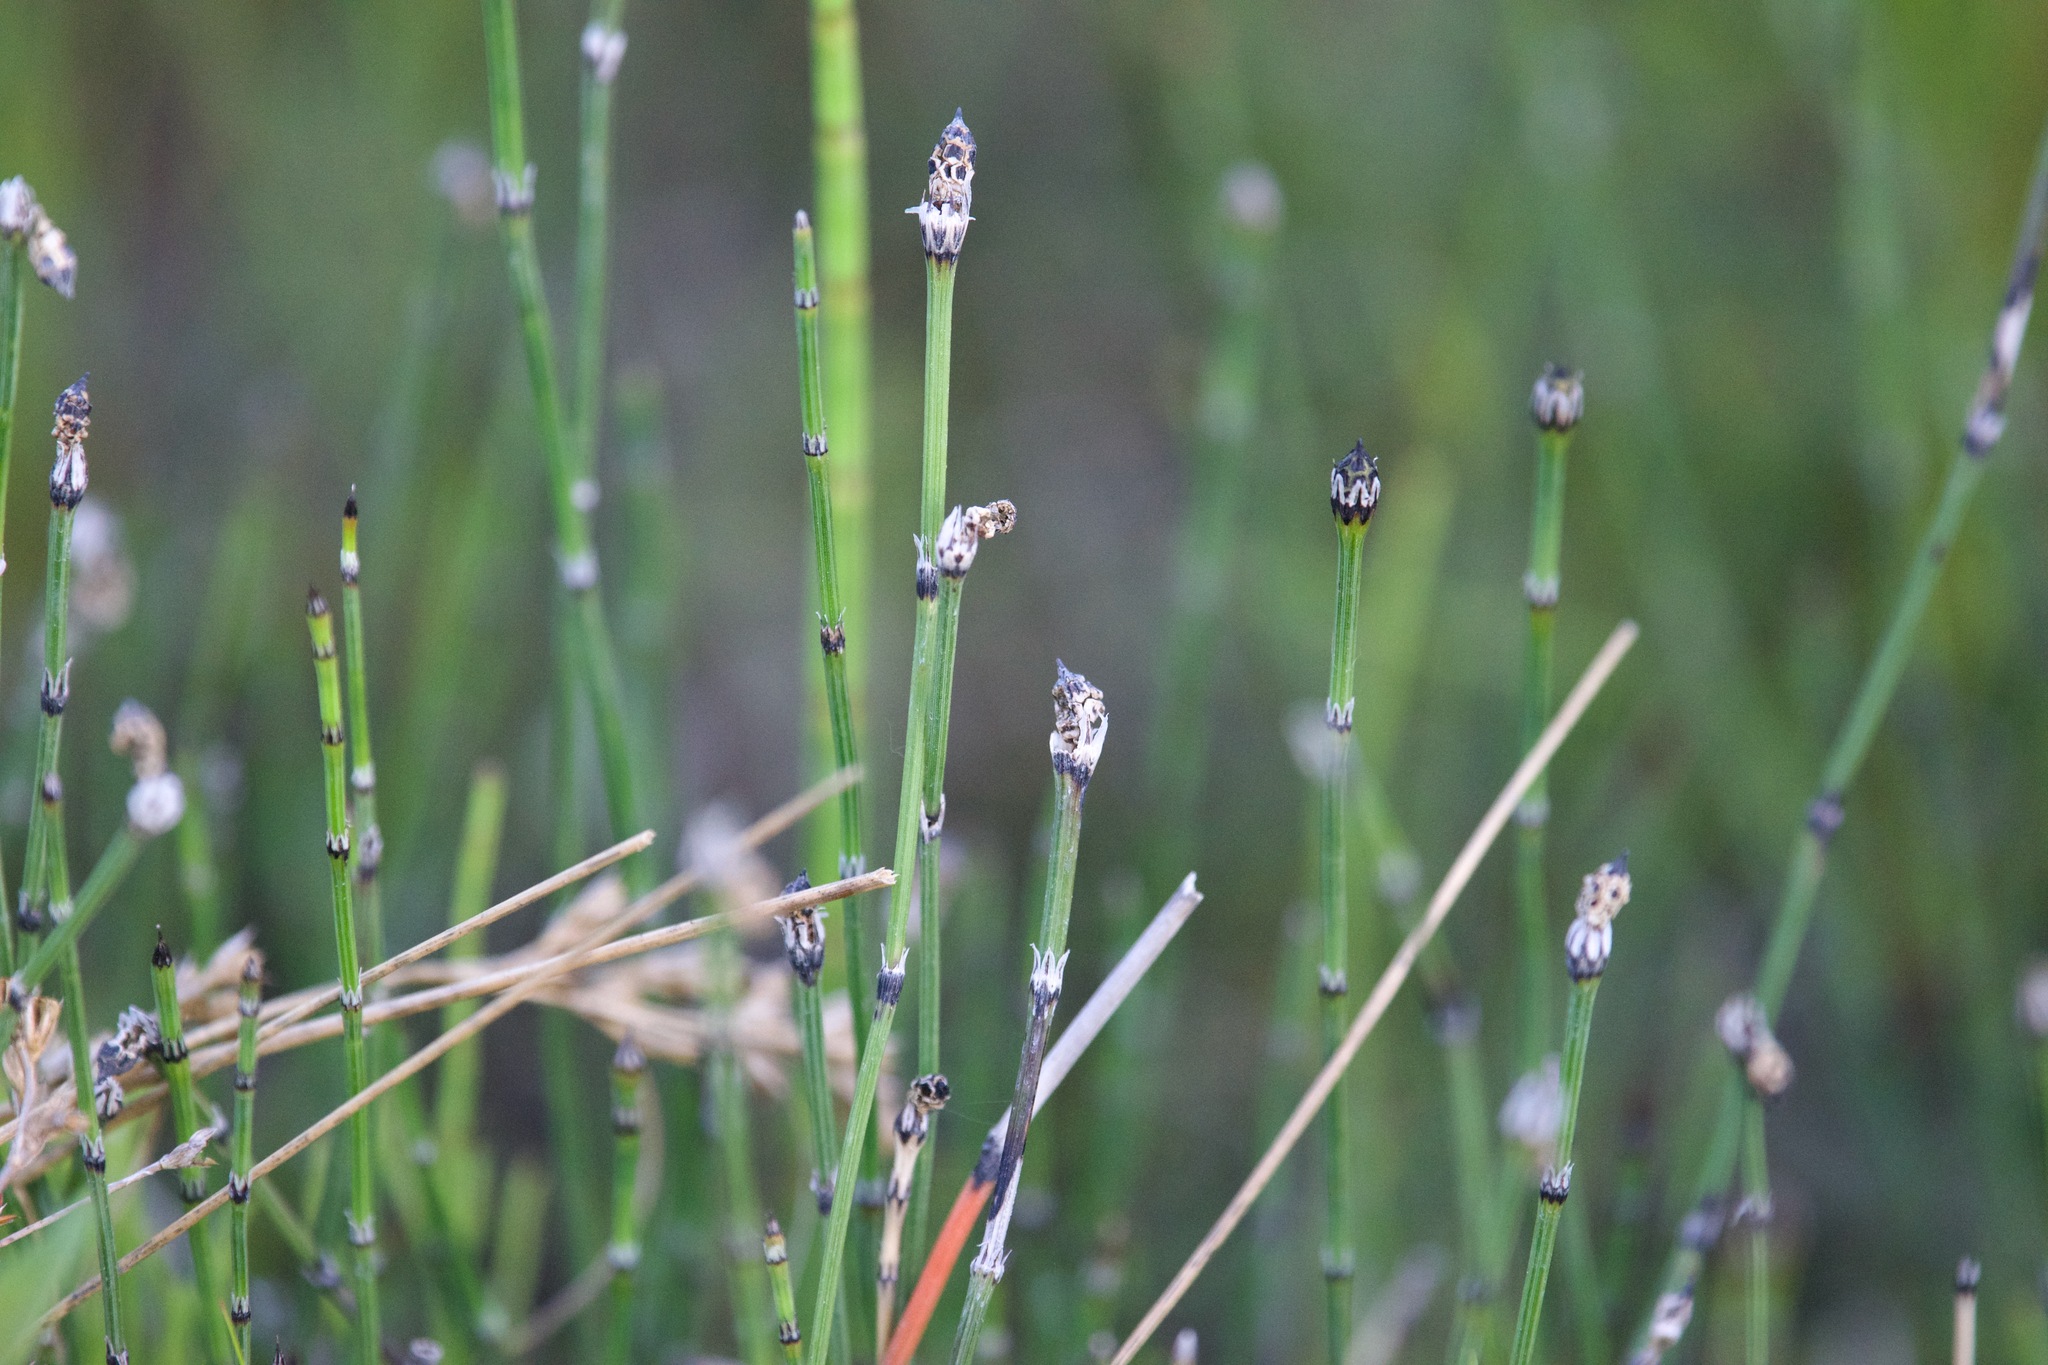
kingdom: Plantae
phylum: Tracheophyta
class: Polypodiopsida
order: Equisetales
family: Equisetaceae
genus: Equisetum
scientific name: Equisetum variegatum
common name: Variegated horsetail
